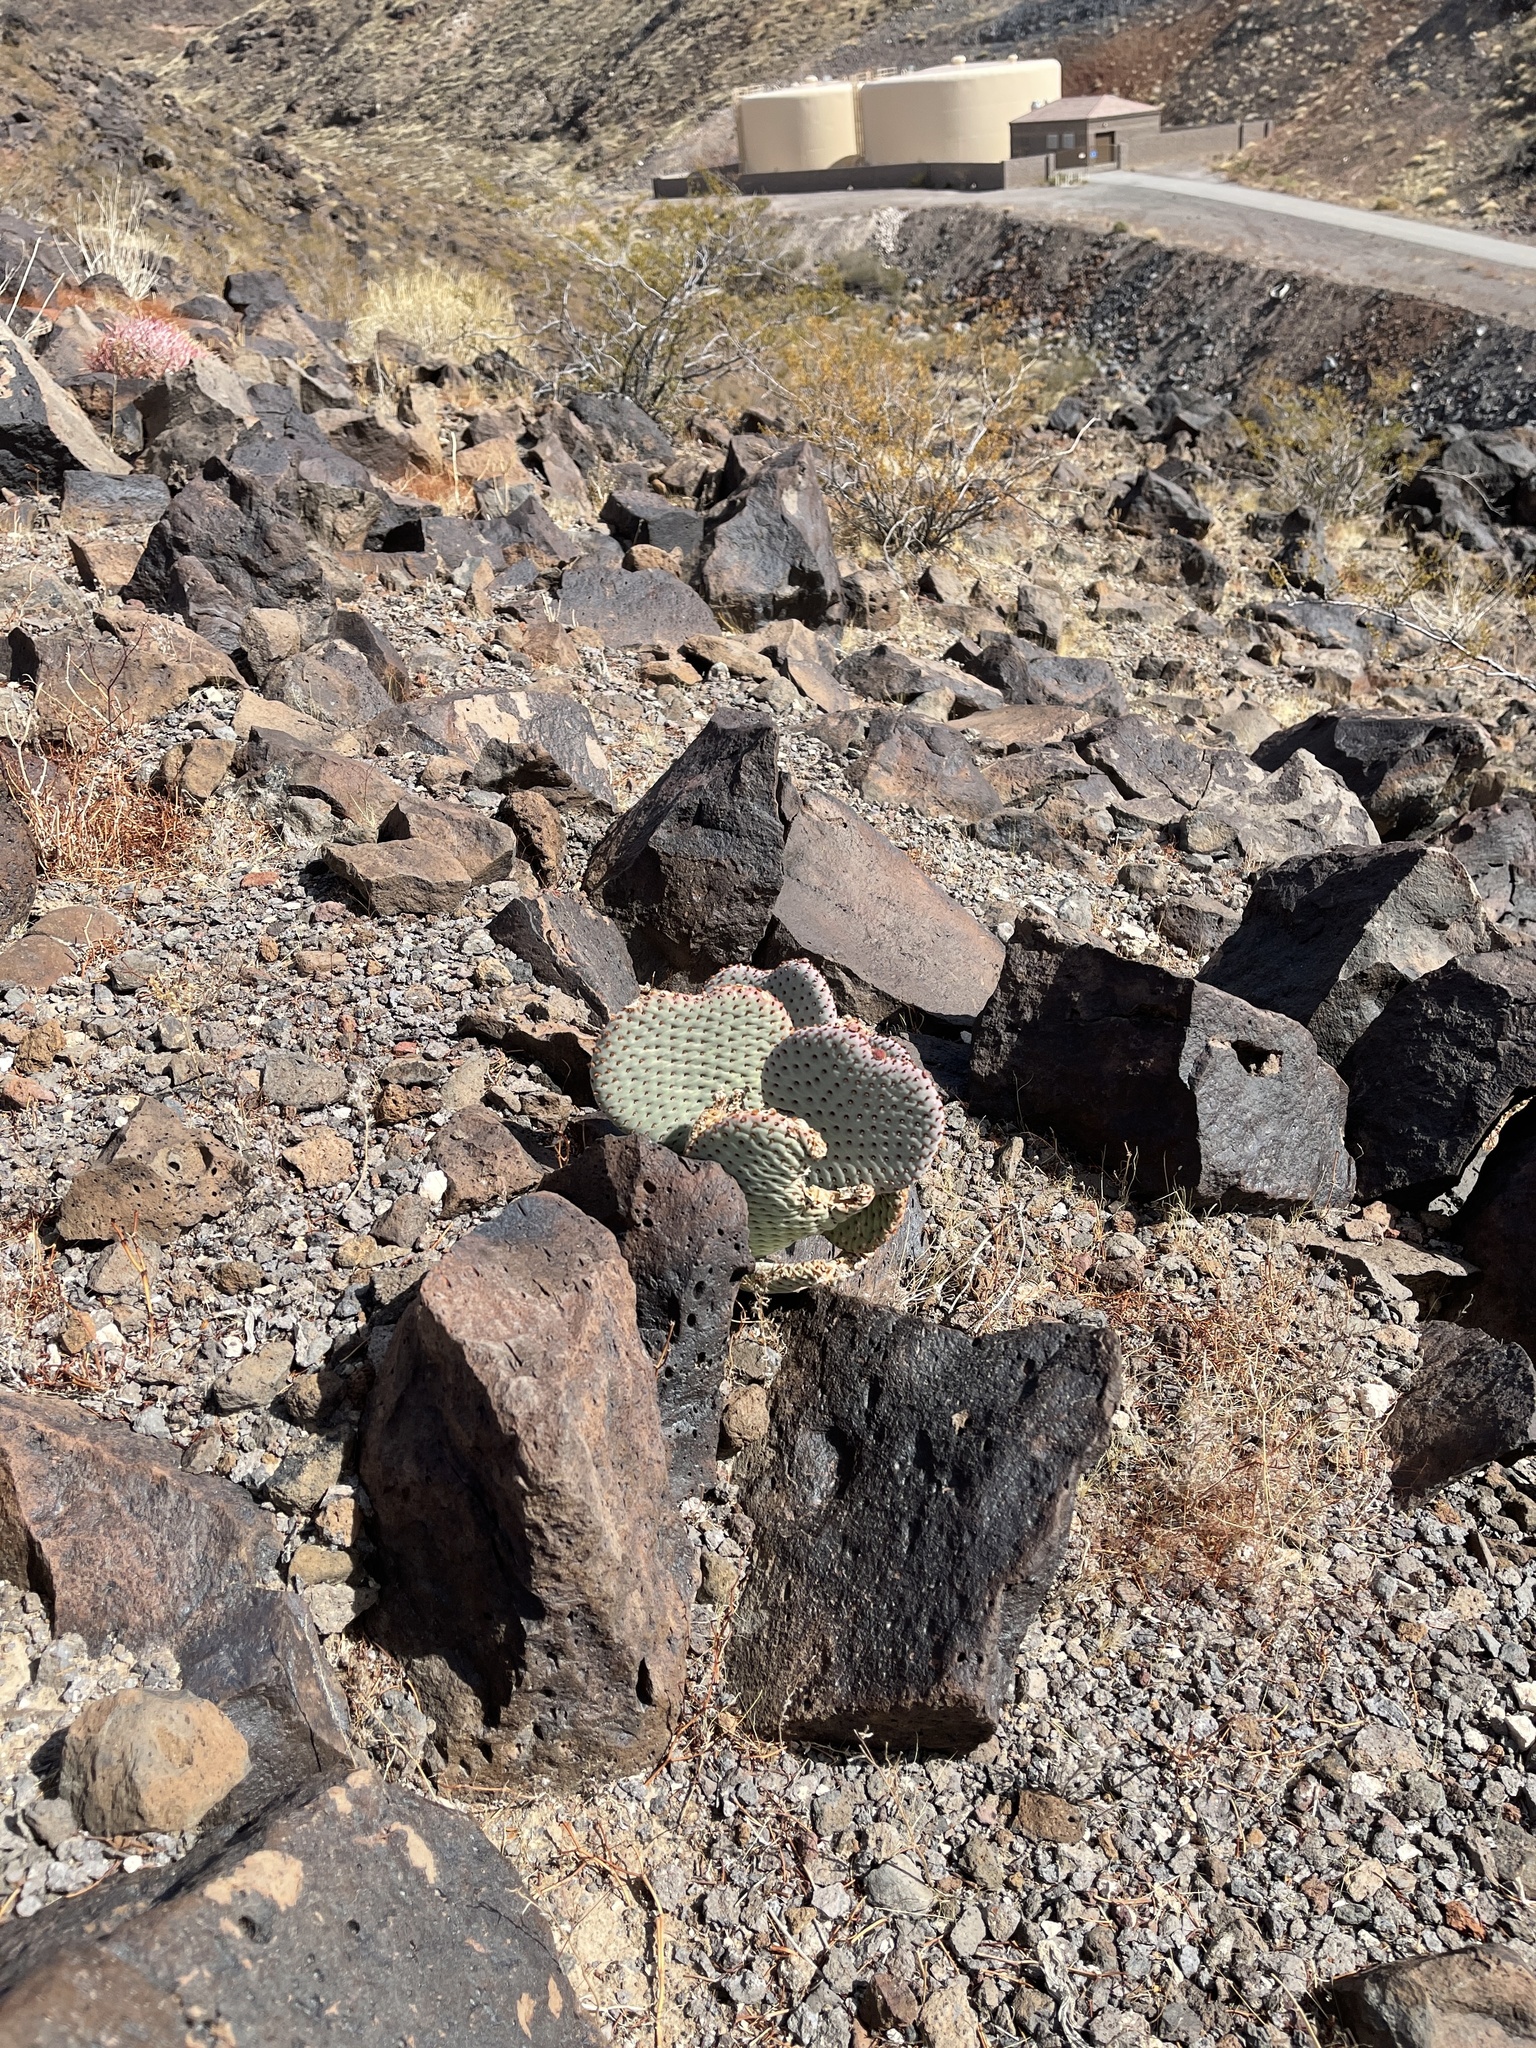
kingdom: Plantae
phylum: Tracheophyta
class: Magnoliopsida
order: Caryophyllales
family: Cactaceae
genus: Opuntia
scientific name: Opuntia basilaris
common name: Beavertail prickly-pear
